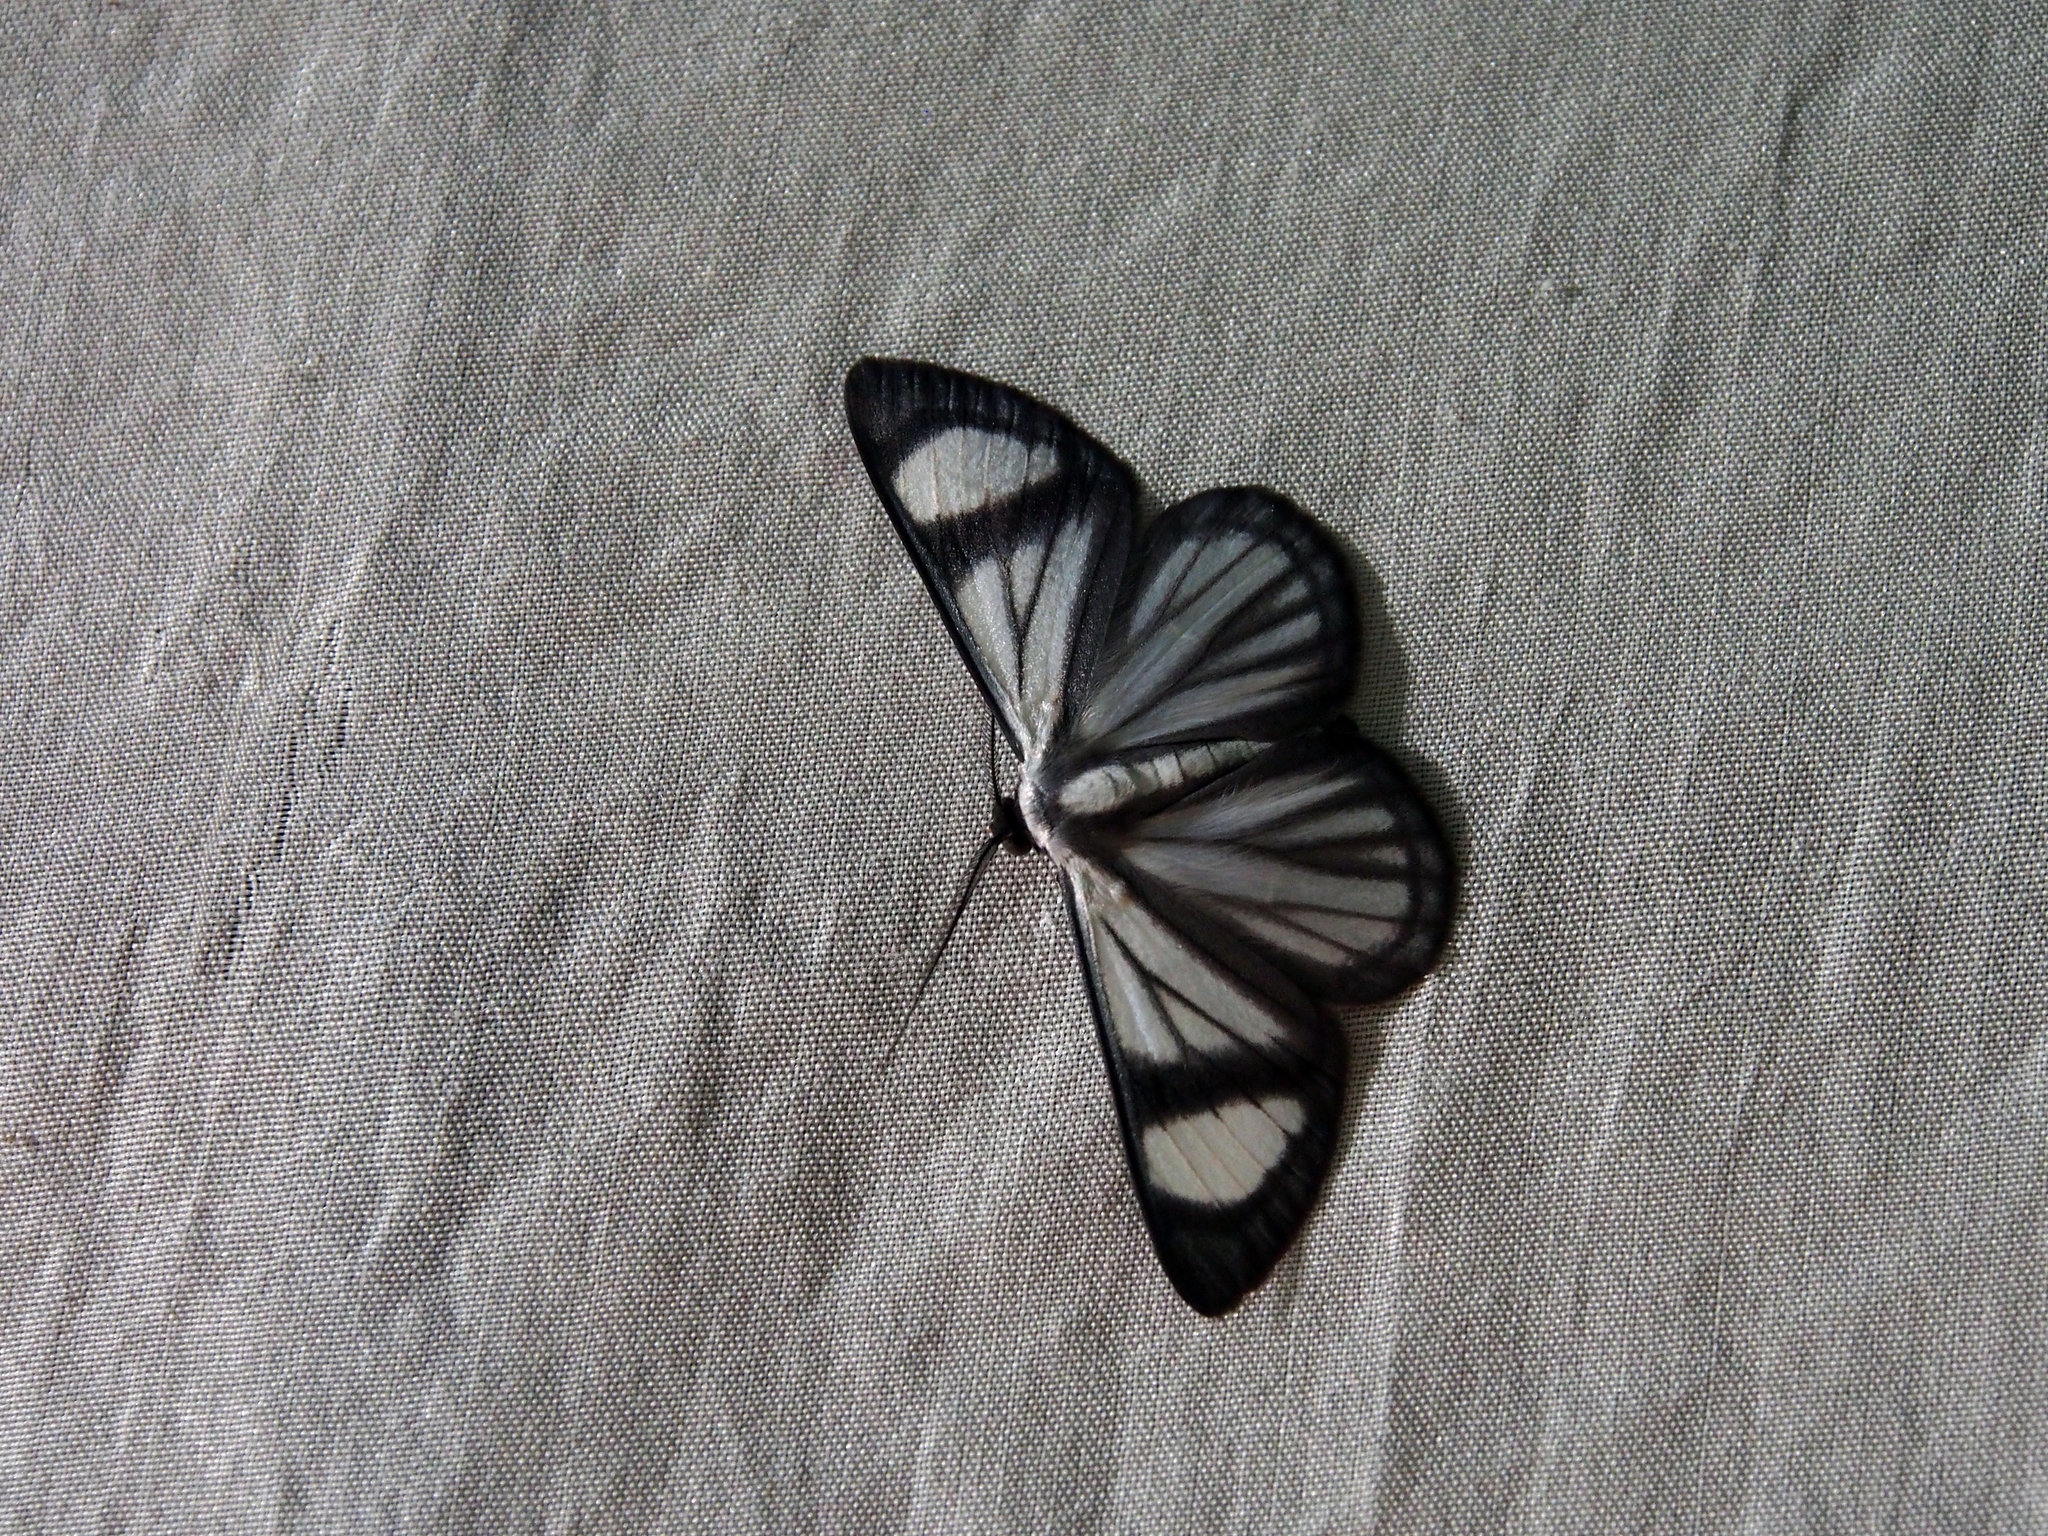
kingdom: Animalia
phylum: Arthropoda
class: Insecta
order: Lepidoptera
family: Geometridae
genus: Perigramma
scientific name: Perigramma vicina
